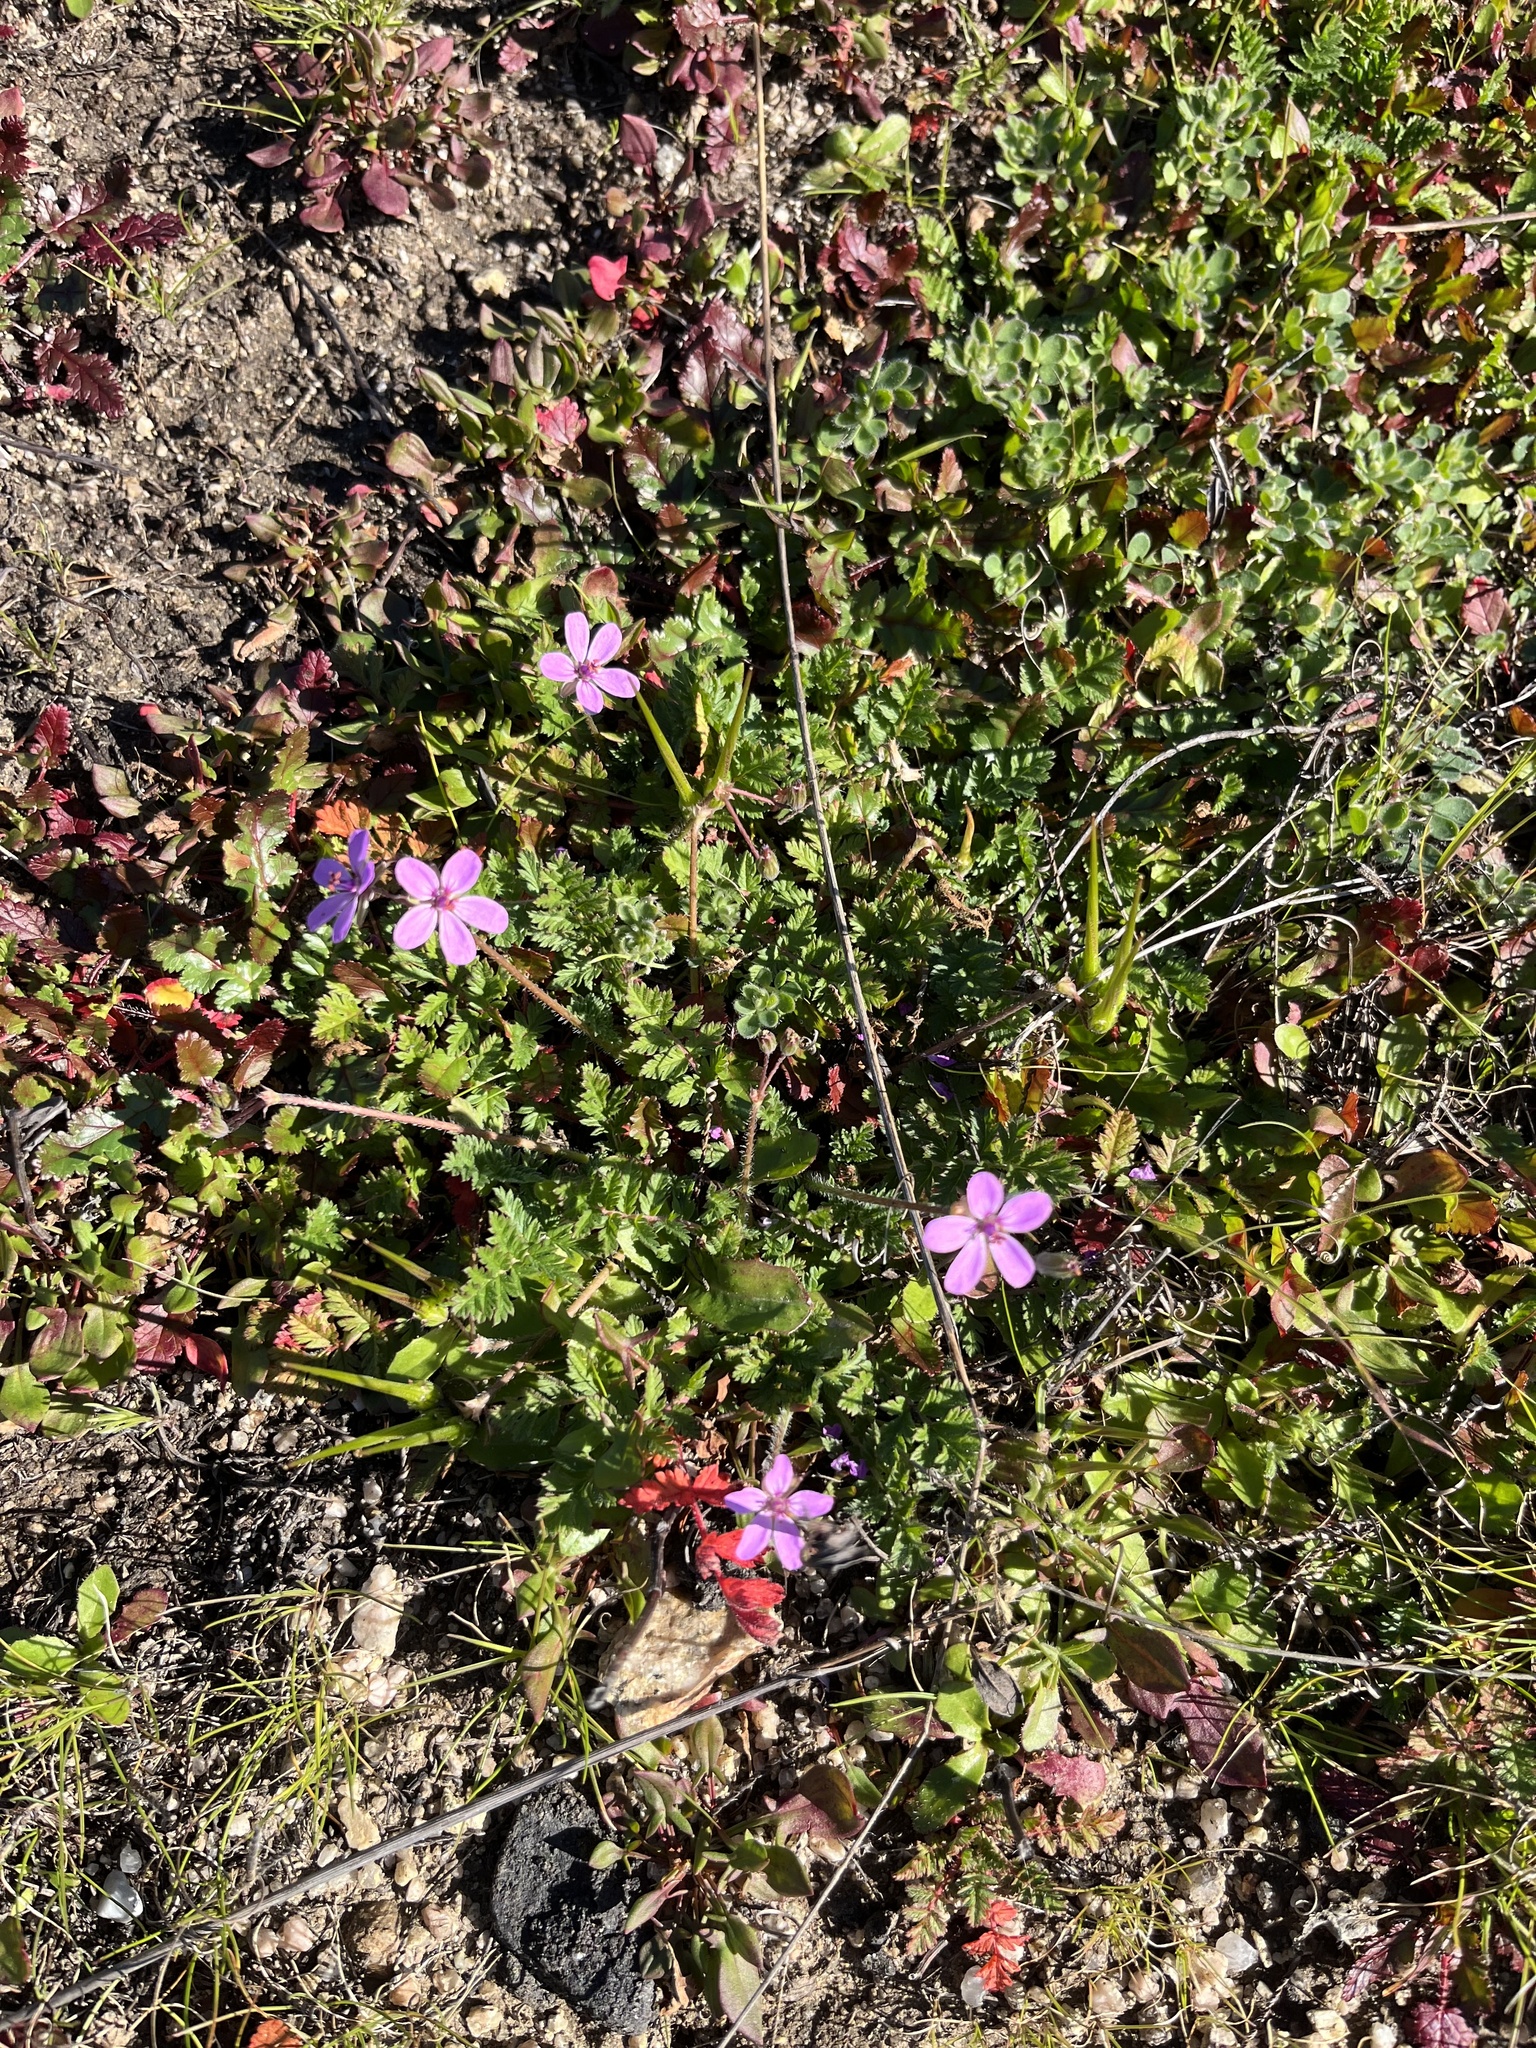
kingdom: Plantae
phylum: Tracheophyta
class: Magnoliopsida
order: Geraniales
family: Geraniaceae
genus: Erodium
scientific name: Erodium cicutarium
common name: Common stork's-bill
